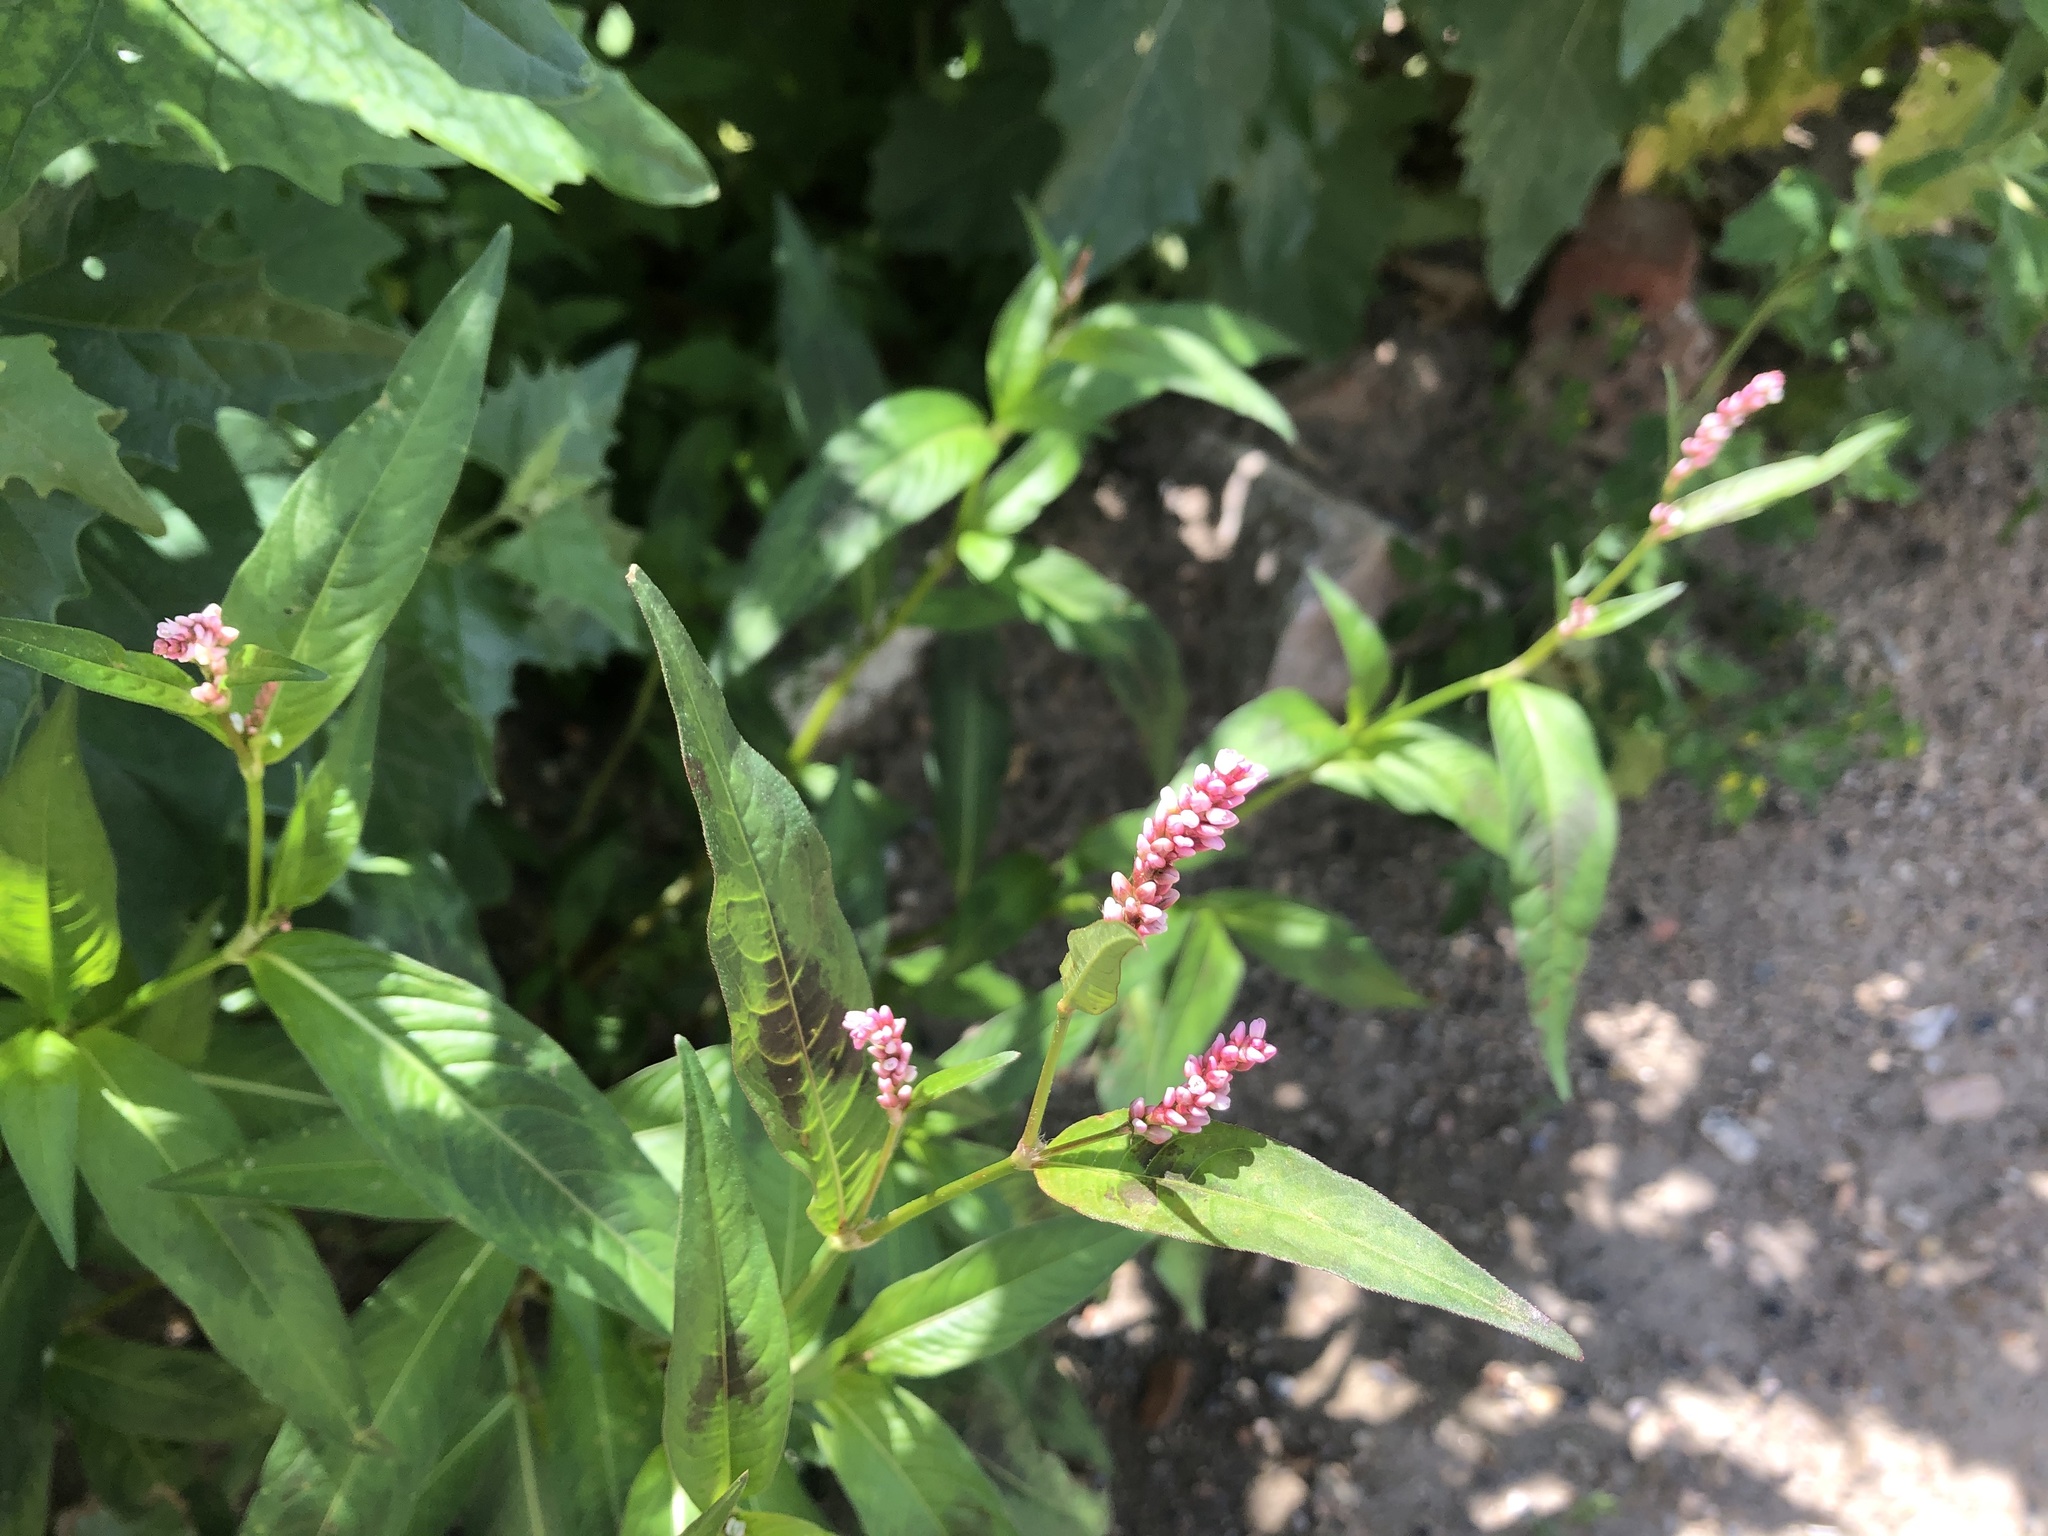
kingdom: Plantae
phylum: Tracheophyta
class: Magnoliopsida
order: Caryophyllales
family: Polygonaceae
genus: Persicaria
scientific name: Persicaria lapathifolia
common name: Curlytop knotweed
